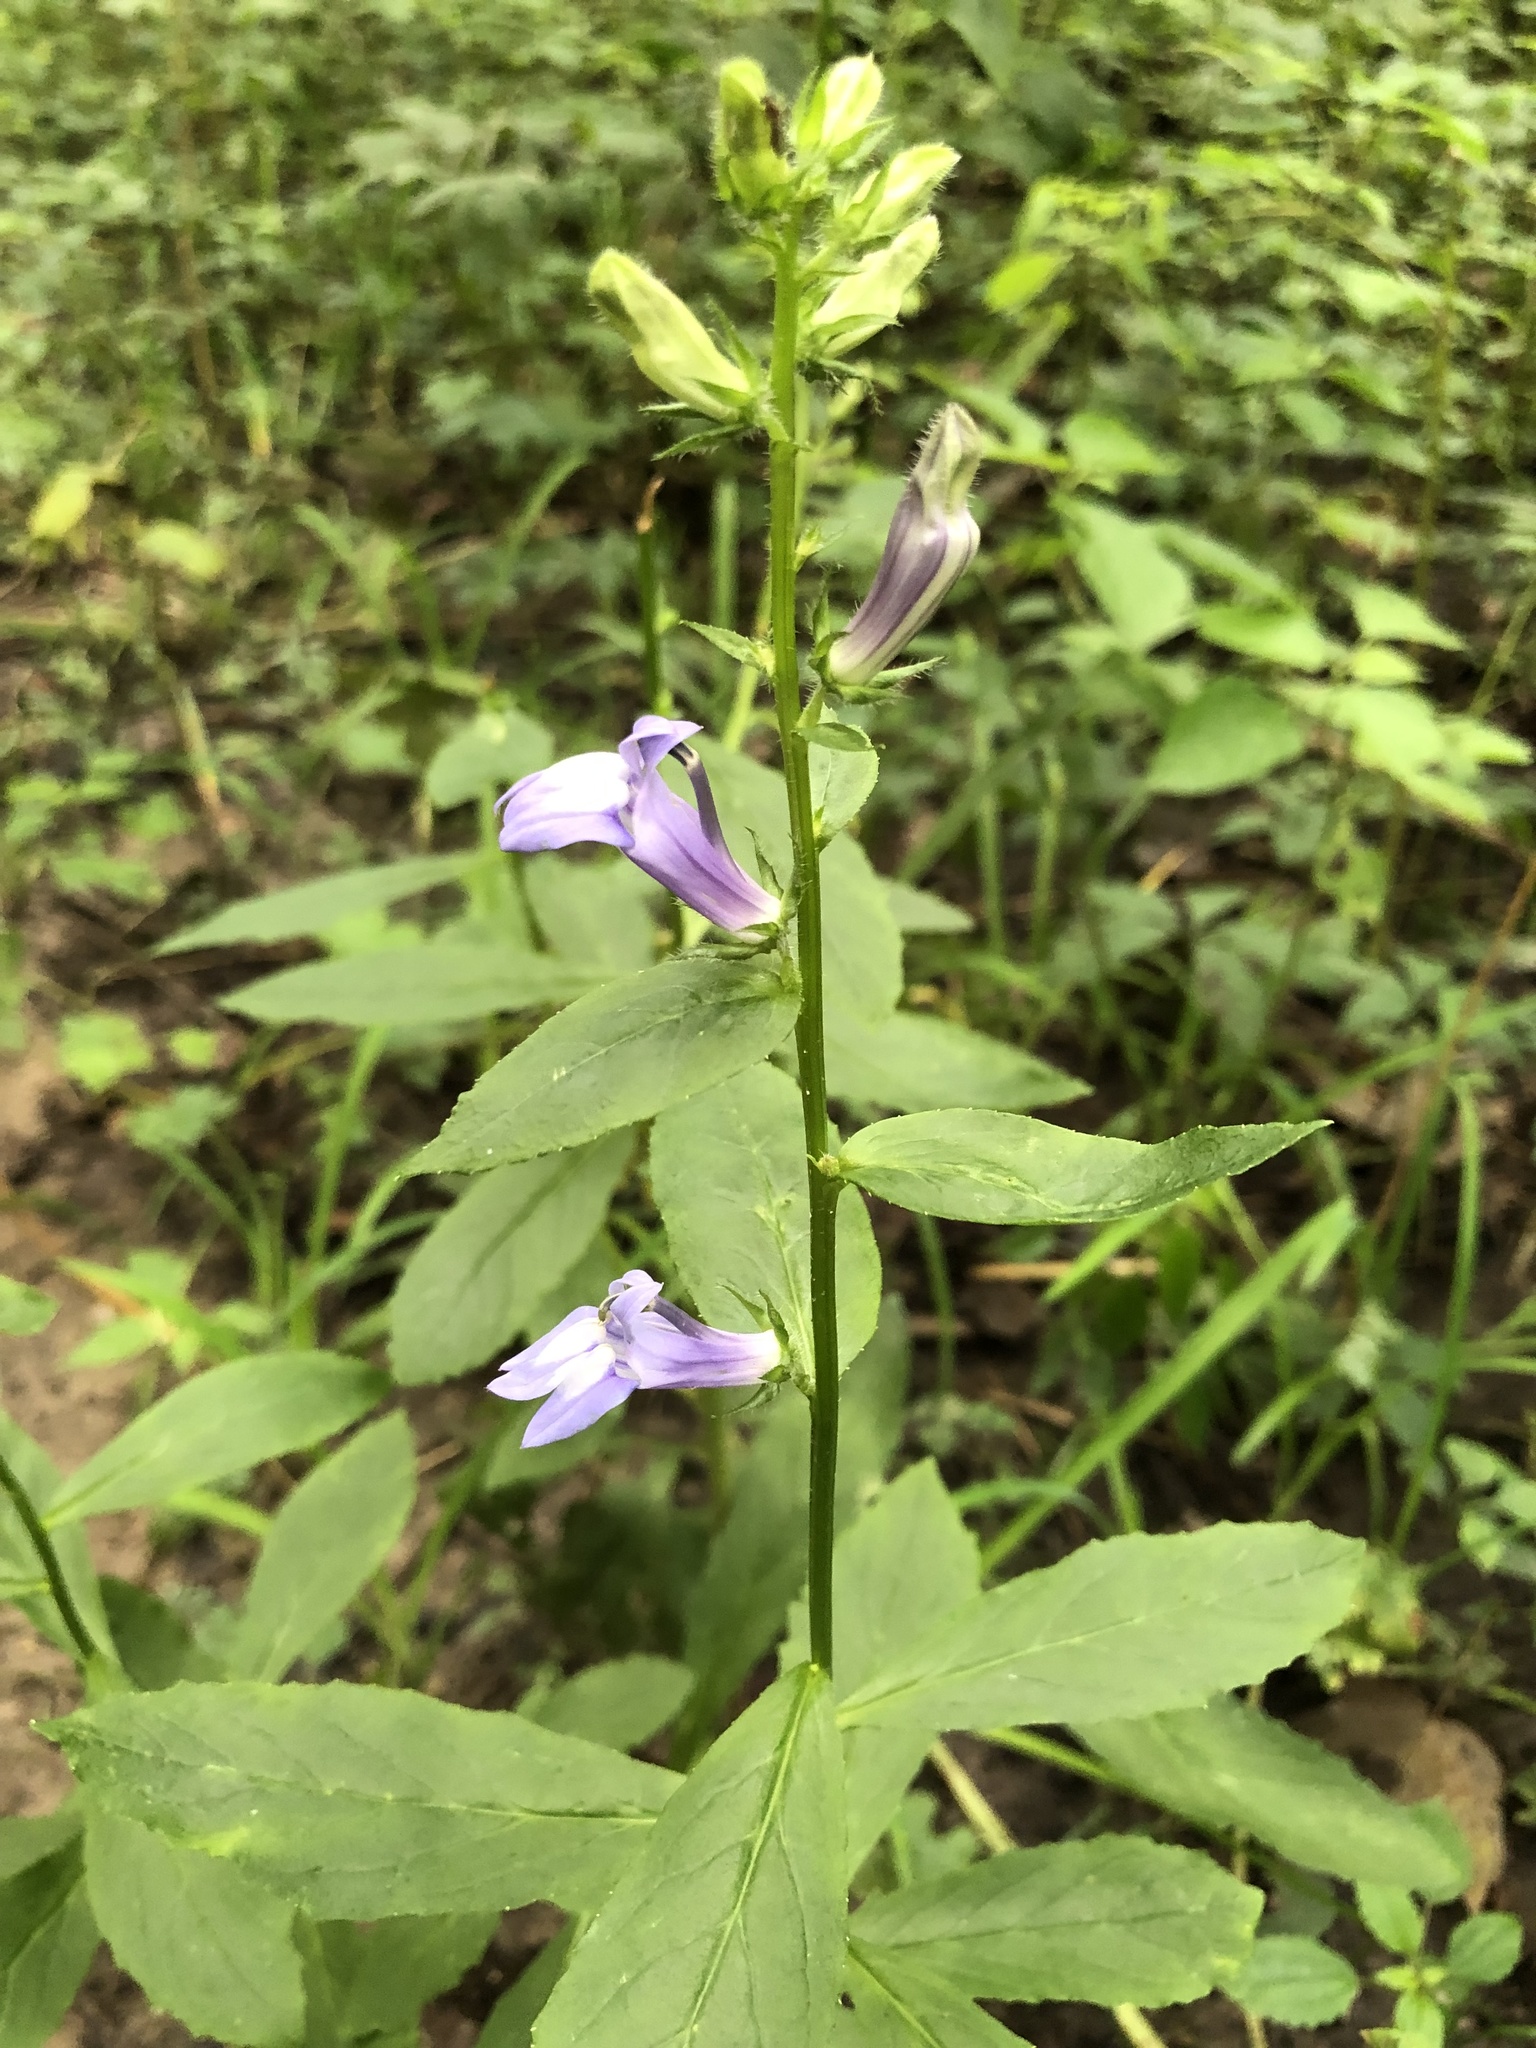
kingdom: Plantae
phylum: Tracheophyta
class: Magnoliopsida
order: Asterales
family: Campanulaceae
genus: Lobelia
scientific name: Lobelia siphilitica
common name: Great lobelia
